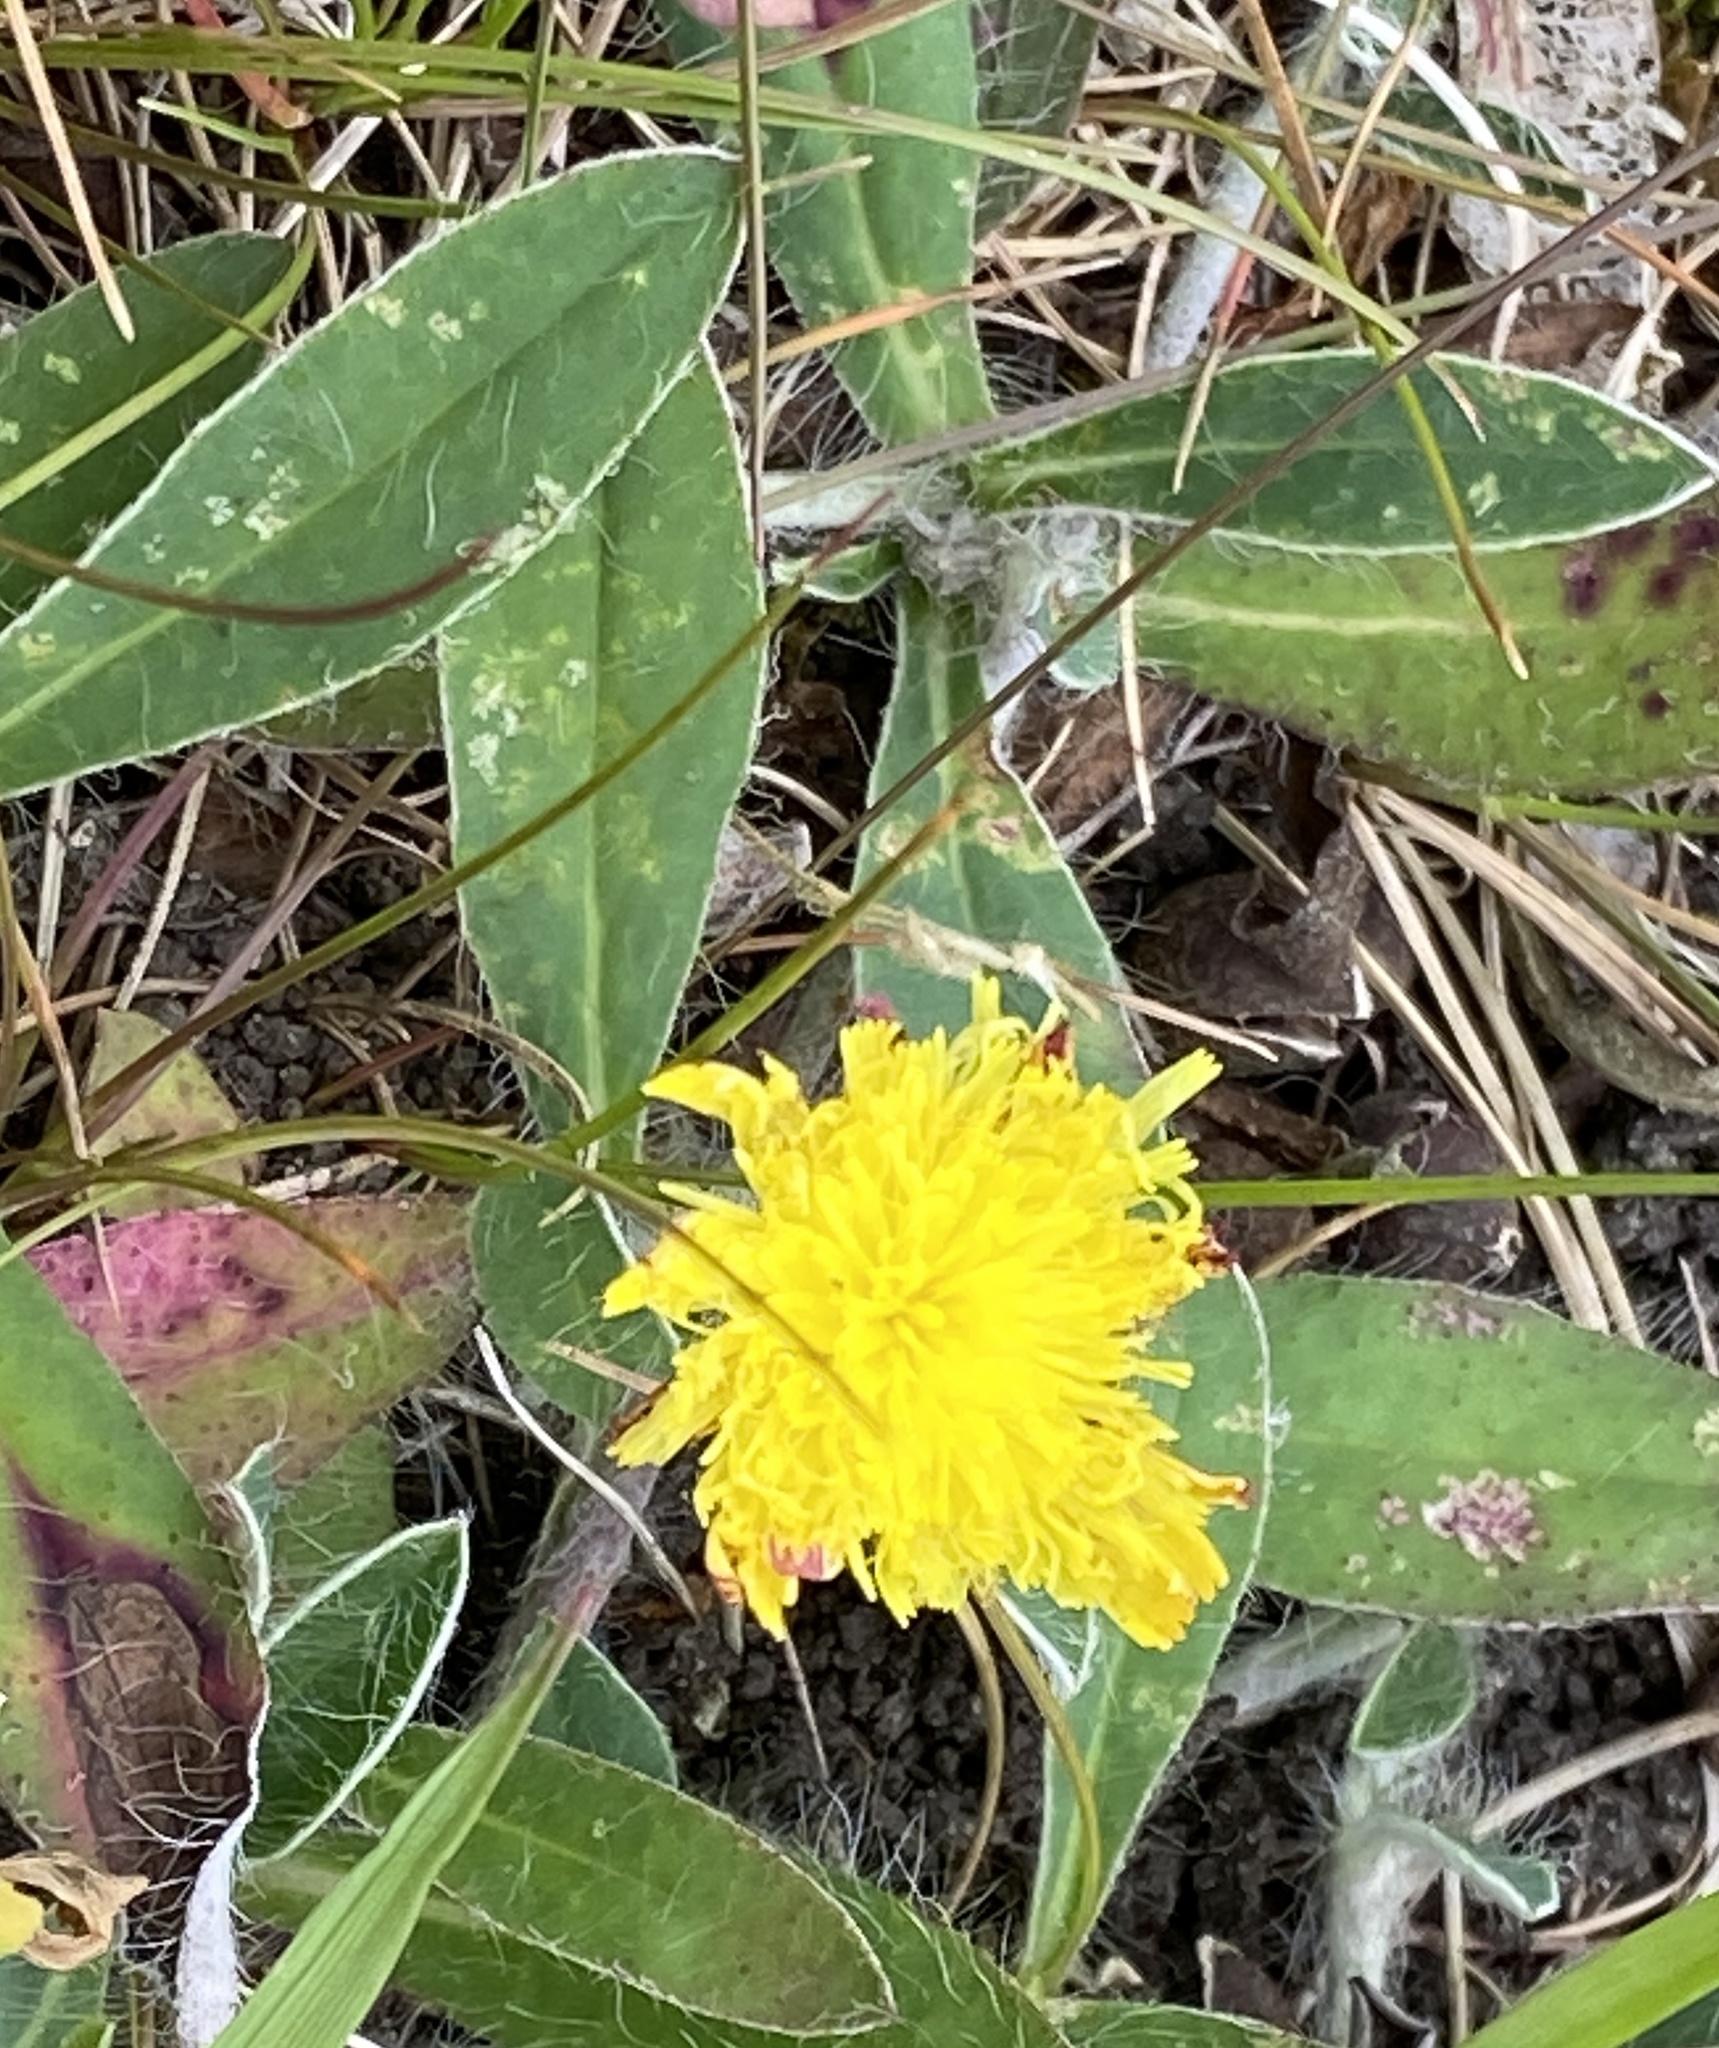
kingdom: Plantae
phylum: Tracheophyta
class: Magnoliopsida
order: Asterales
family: Asteraceae
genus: Pilosella
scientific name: Pilosella officinarum
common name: Mouse-ear hawkweed
